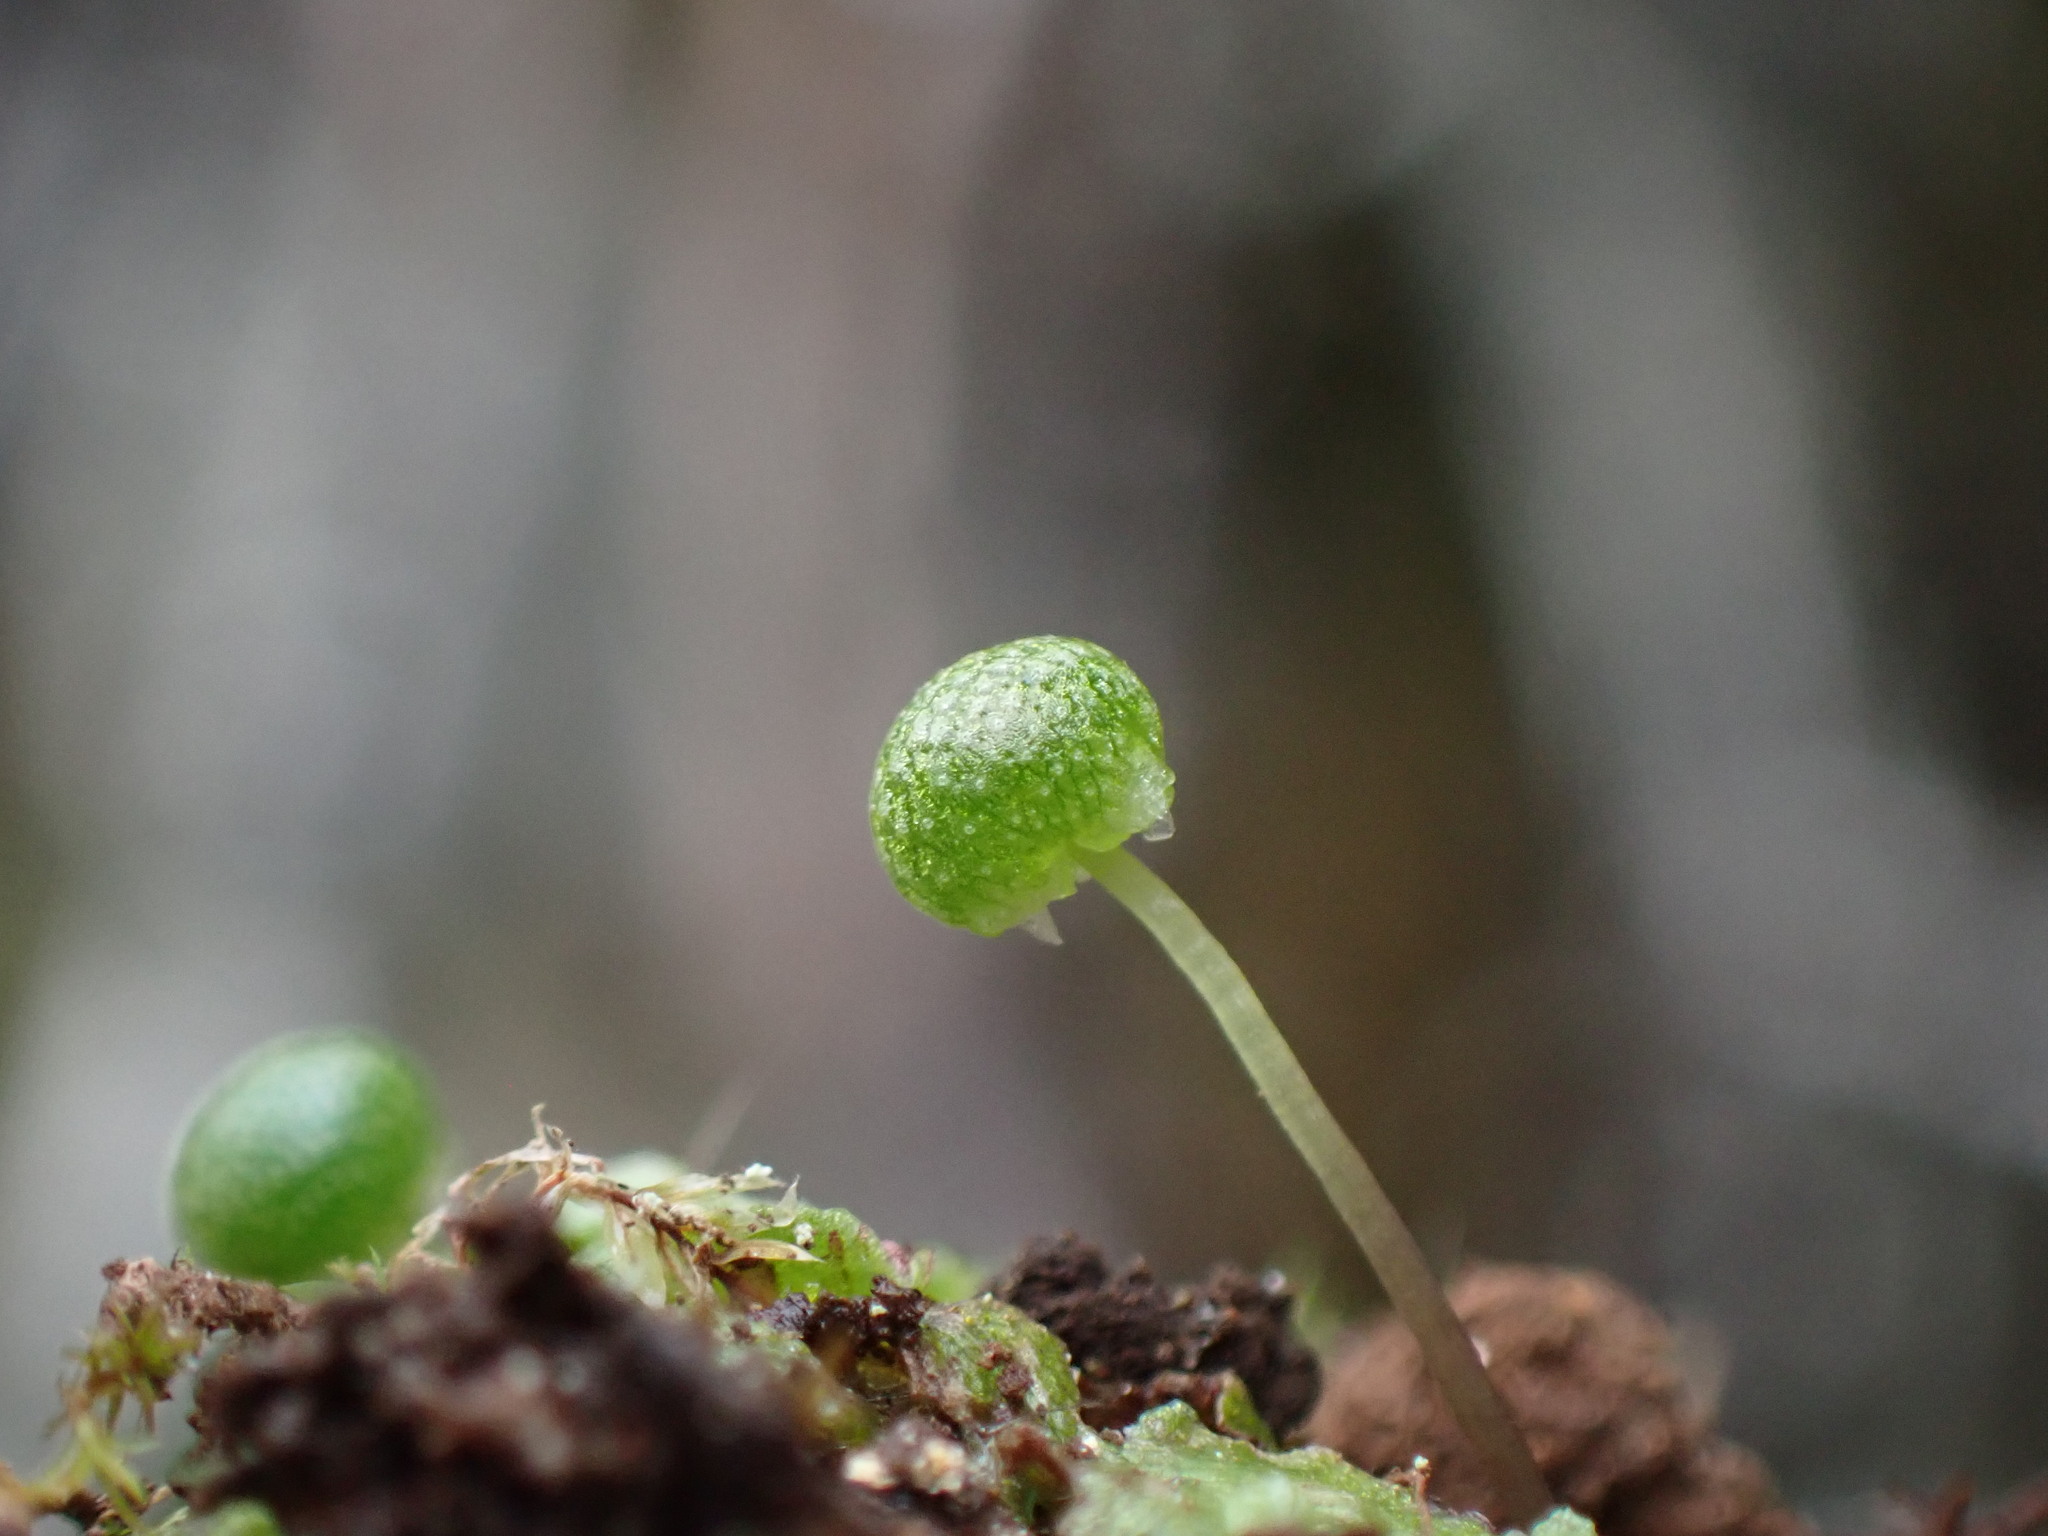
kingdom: Plantae
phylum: Marchantiophyta
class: Marchantiopsida
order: Marchantiales
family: Aytoniaceae
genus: Mannia
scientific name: Mannia gracilis
